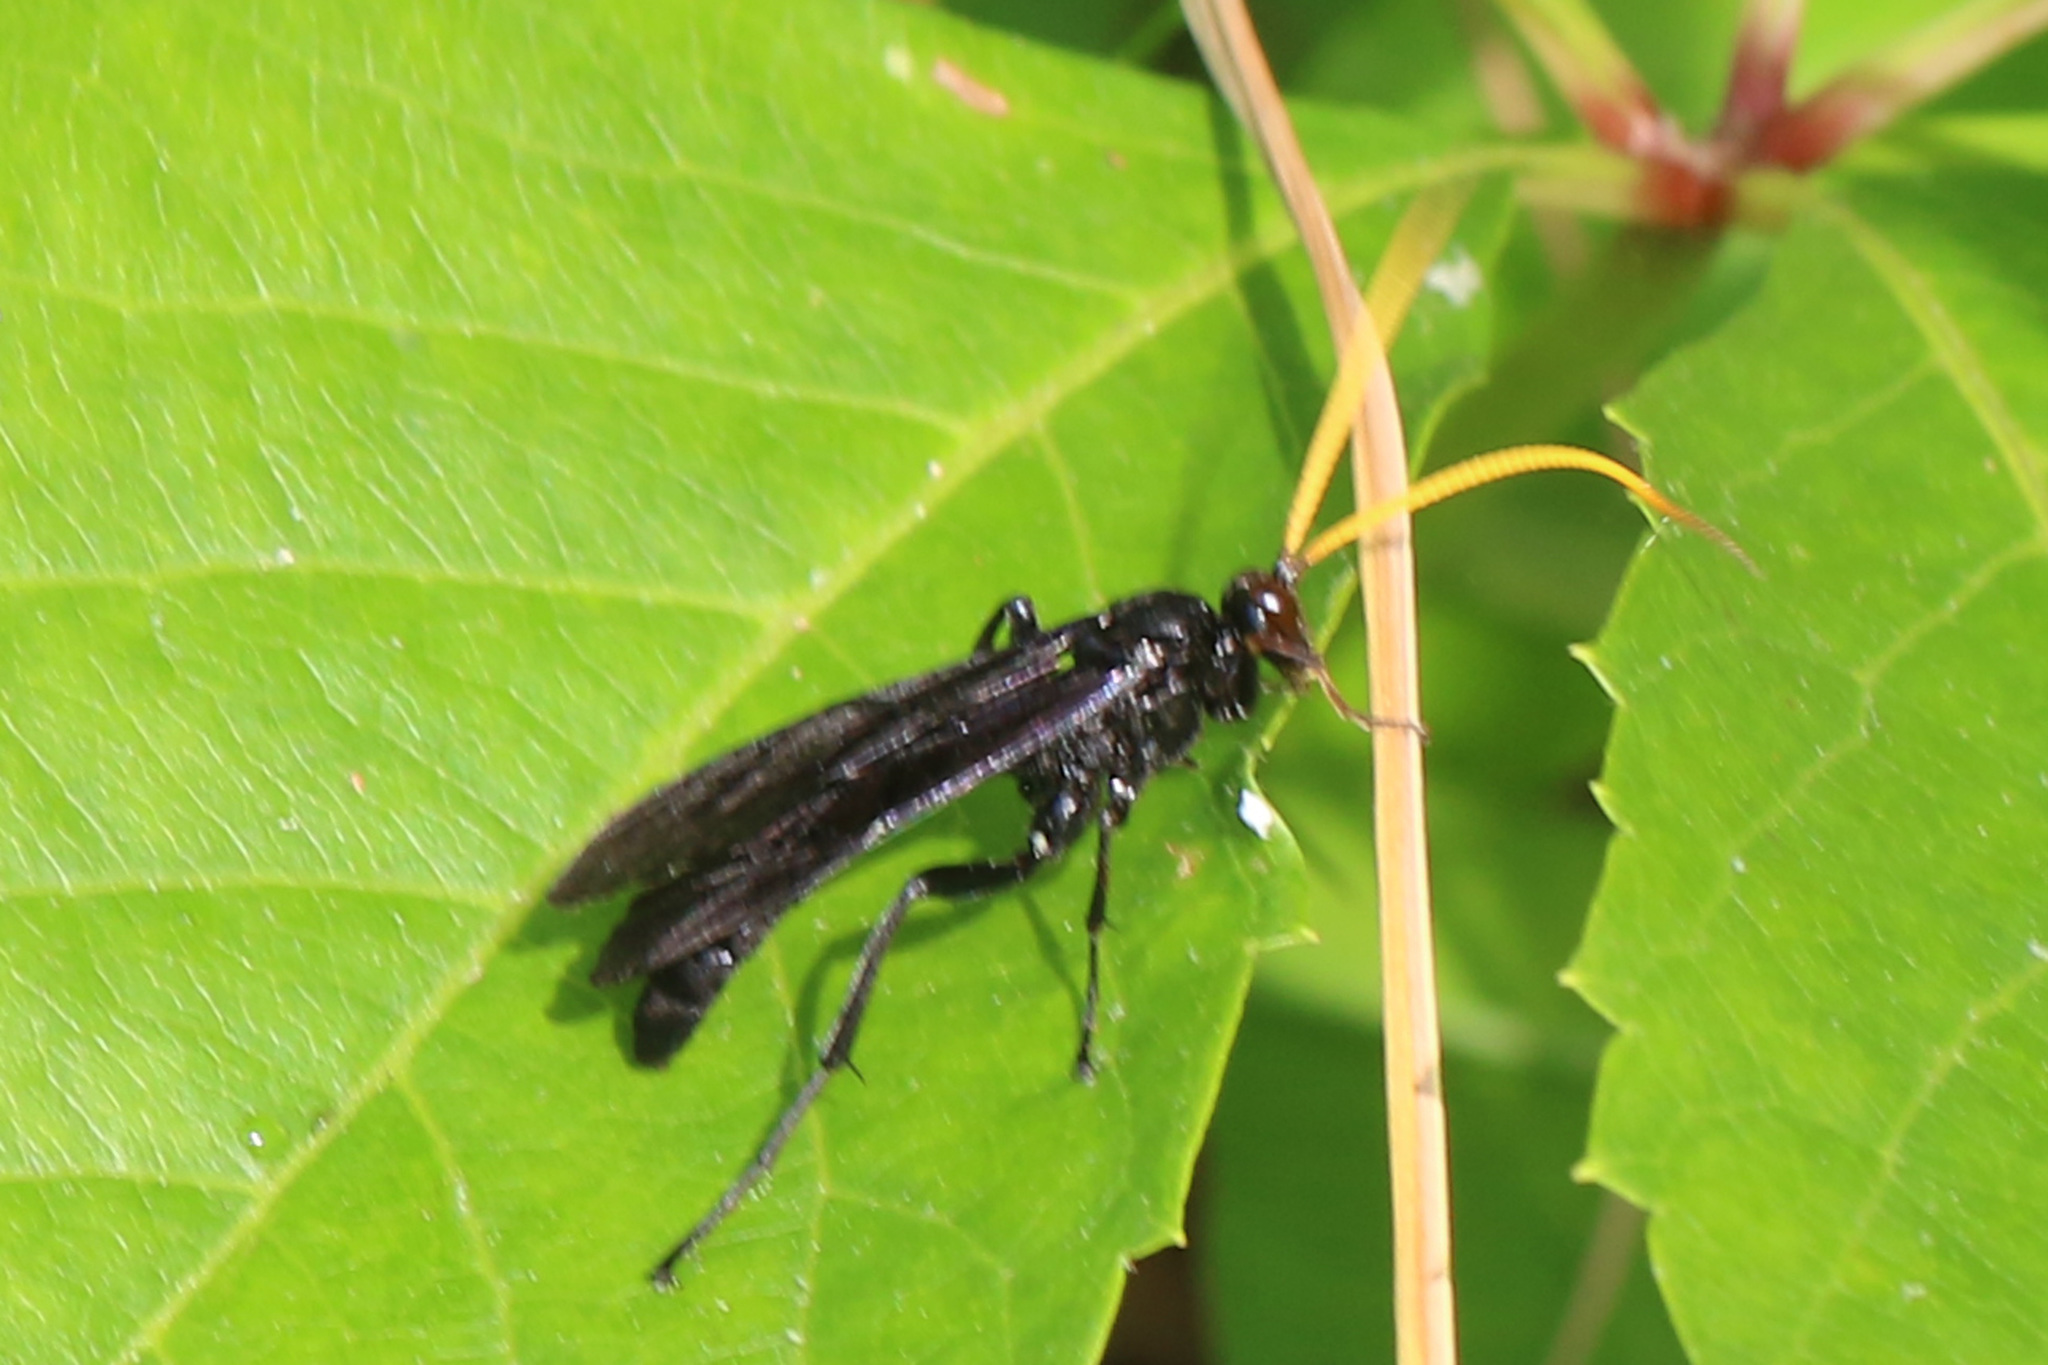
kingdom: Animalia
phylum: Arthropoda
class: Insecta
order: Hymenoptera
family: Ichneumonidae
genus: Gnamptopelta
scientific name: Gnamptopelta obsidianator
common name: Bent-shielded besieger wasp
